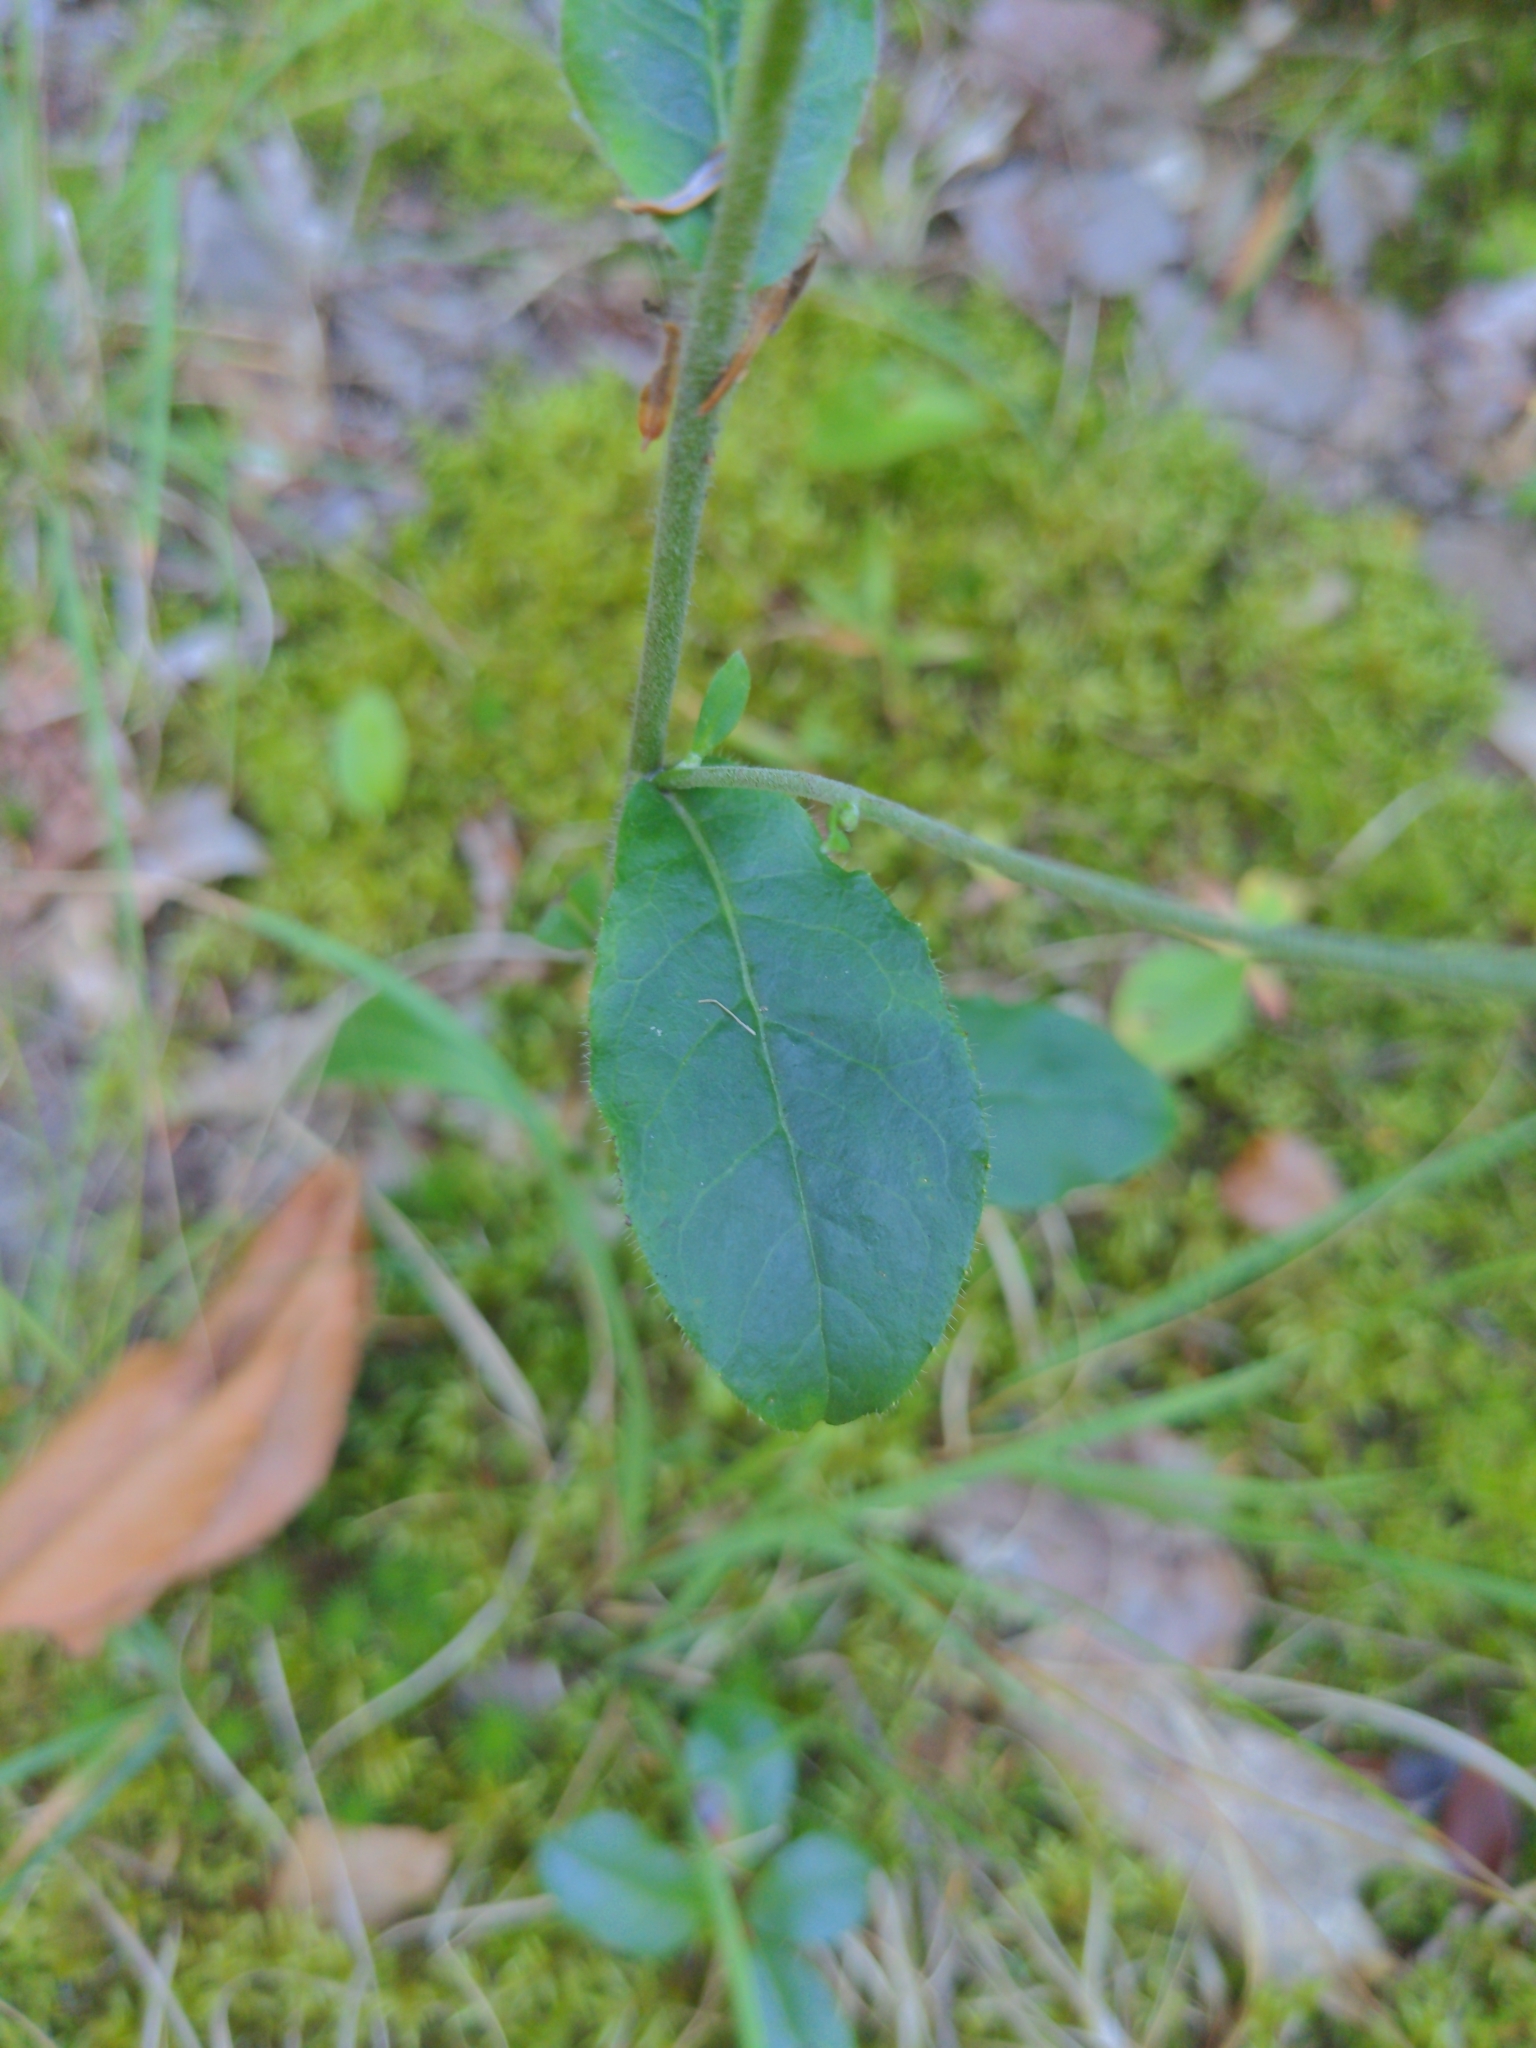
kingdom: Plantae
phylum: Tracheophyta
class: Magnoliopsida
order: Asterales
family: Asteraceae
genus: Hieracium
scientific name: Hieracium scabrum
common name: Rough hawkweed
